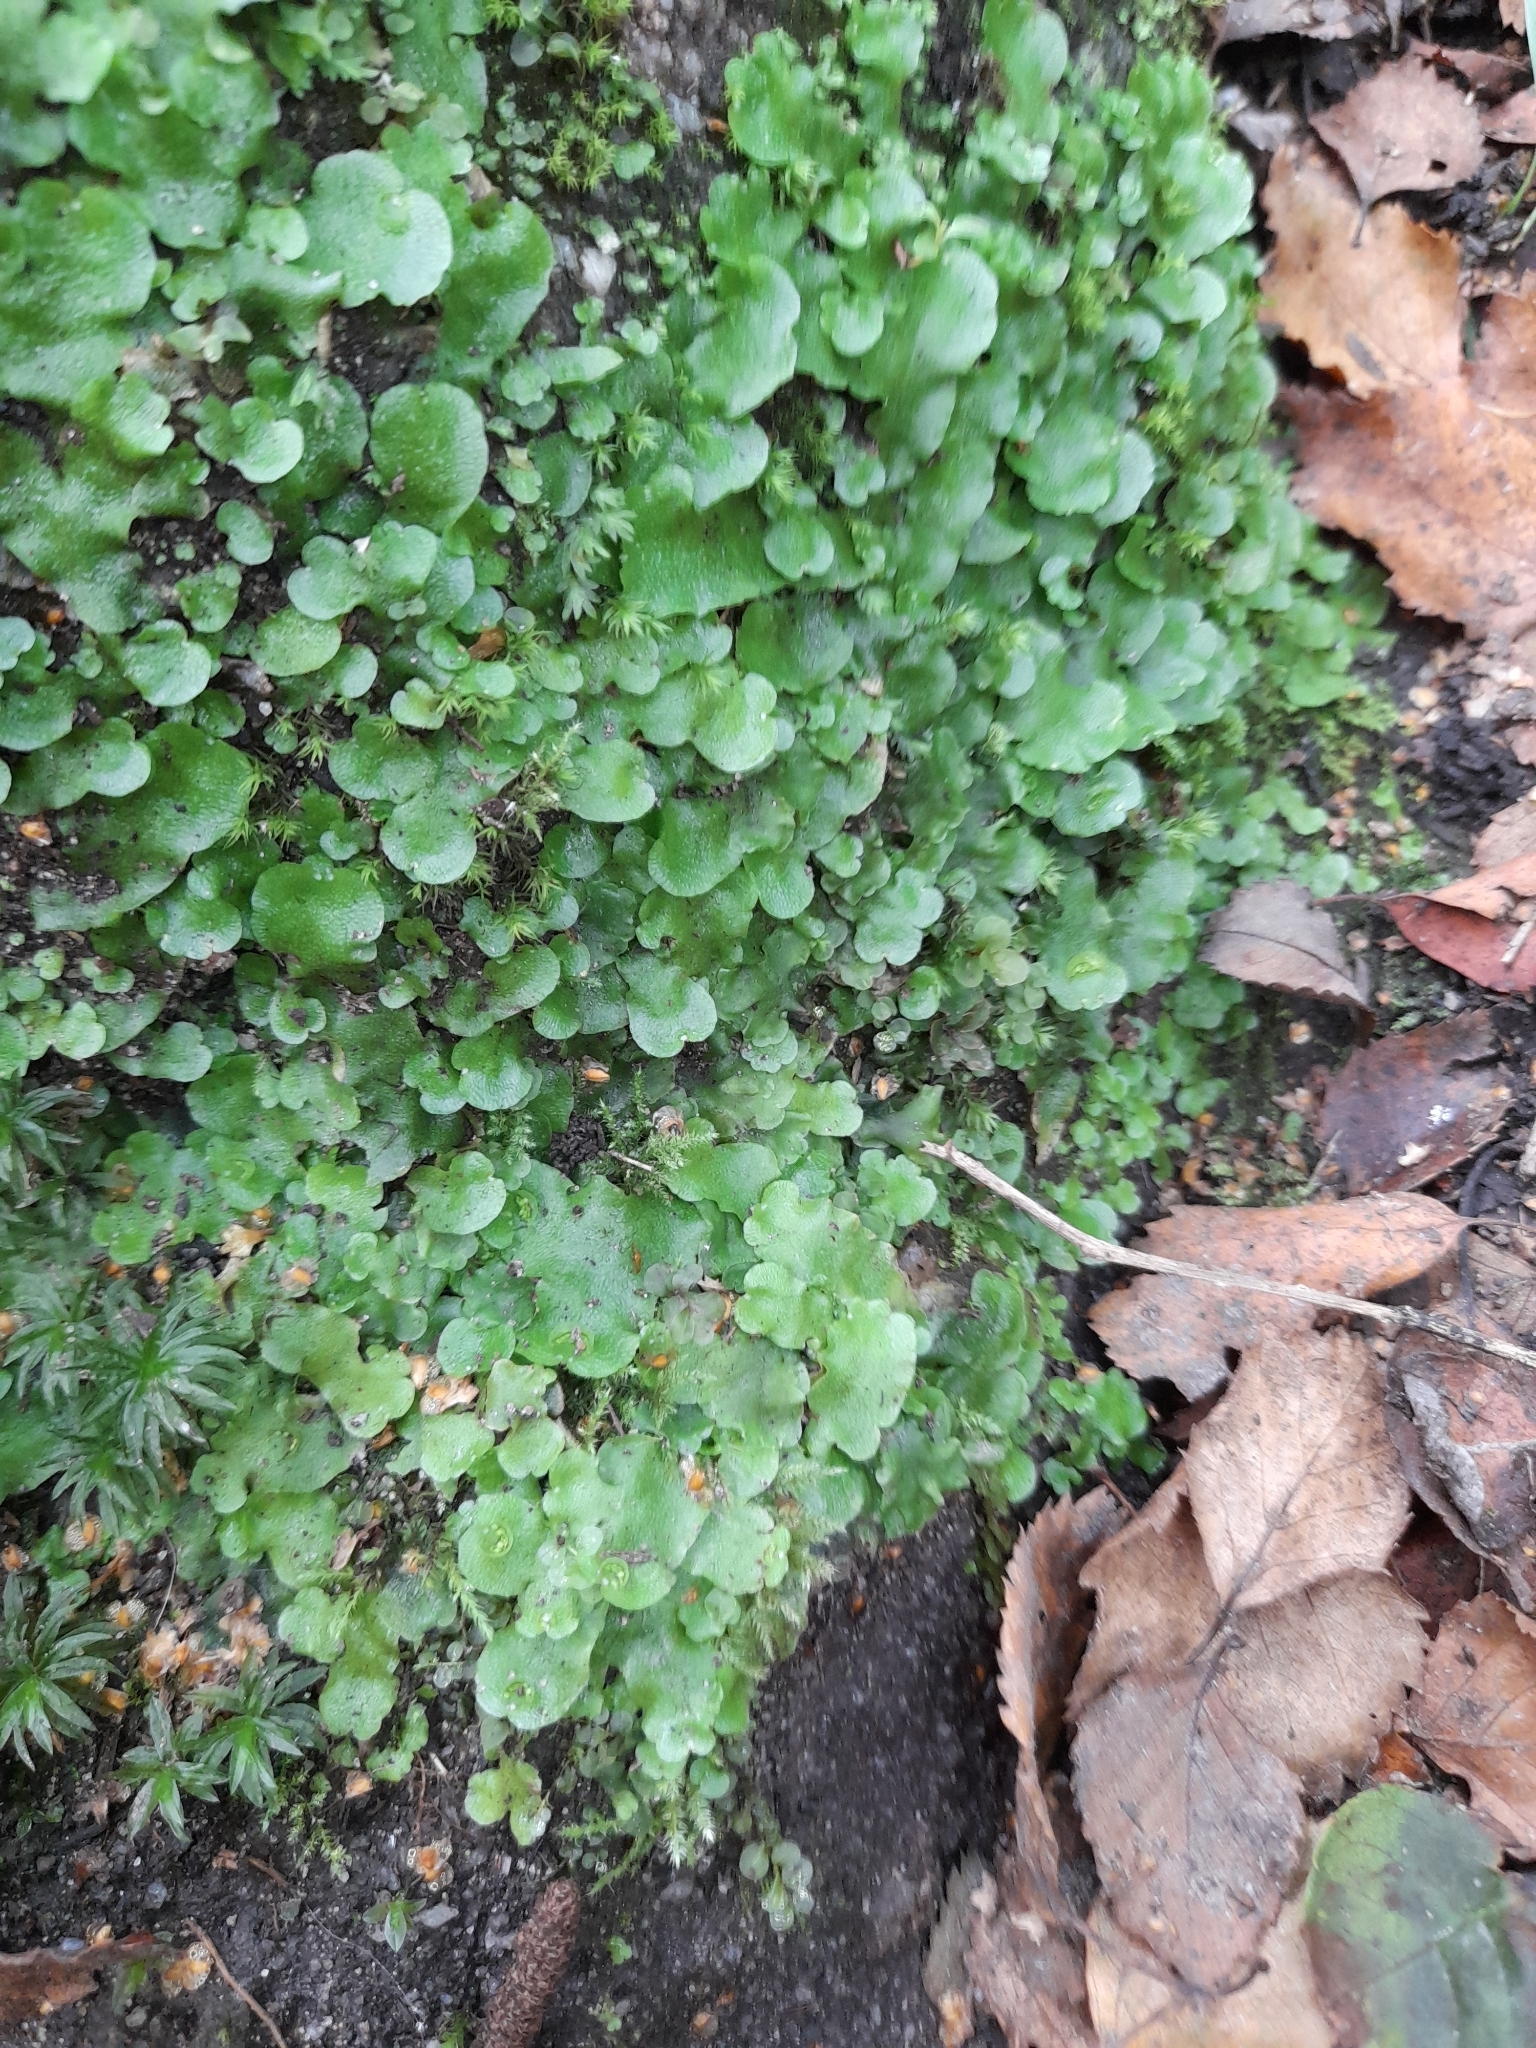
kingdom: Plantae
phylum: Marchantiophyta
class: Marchantiopsida
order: Lunulariales
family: Lunulariaceae
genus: Lunularia
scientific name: Lunularia cruciata
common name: Crescent-cup liverwort
